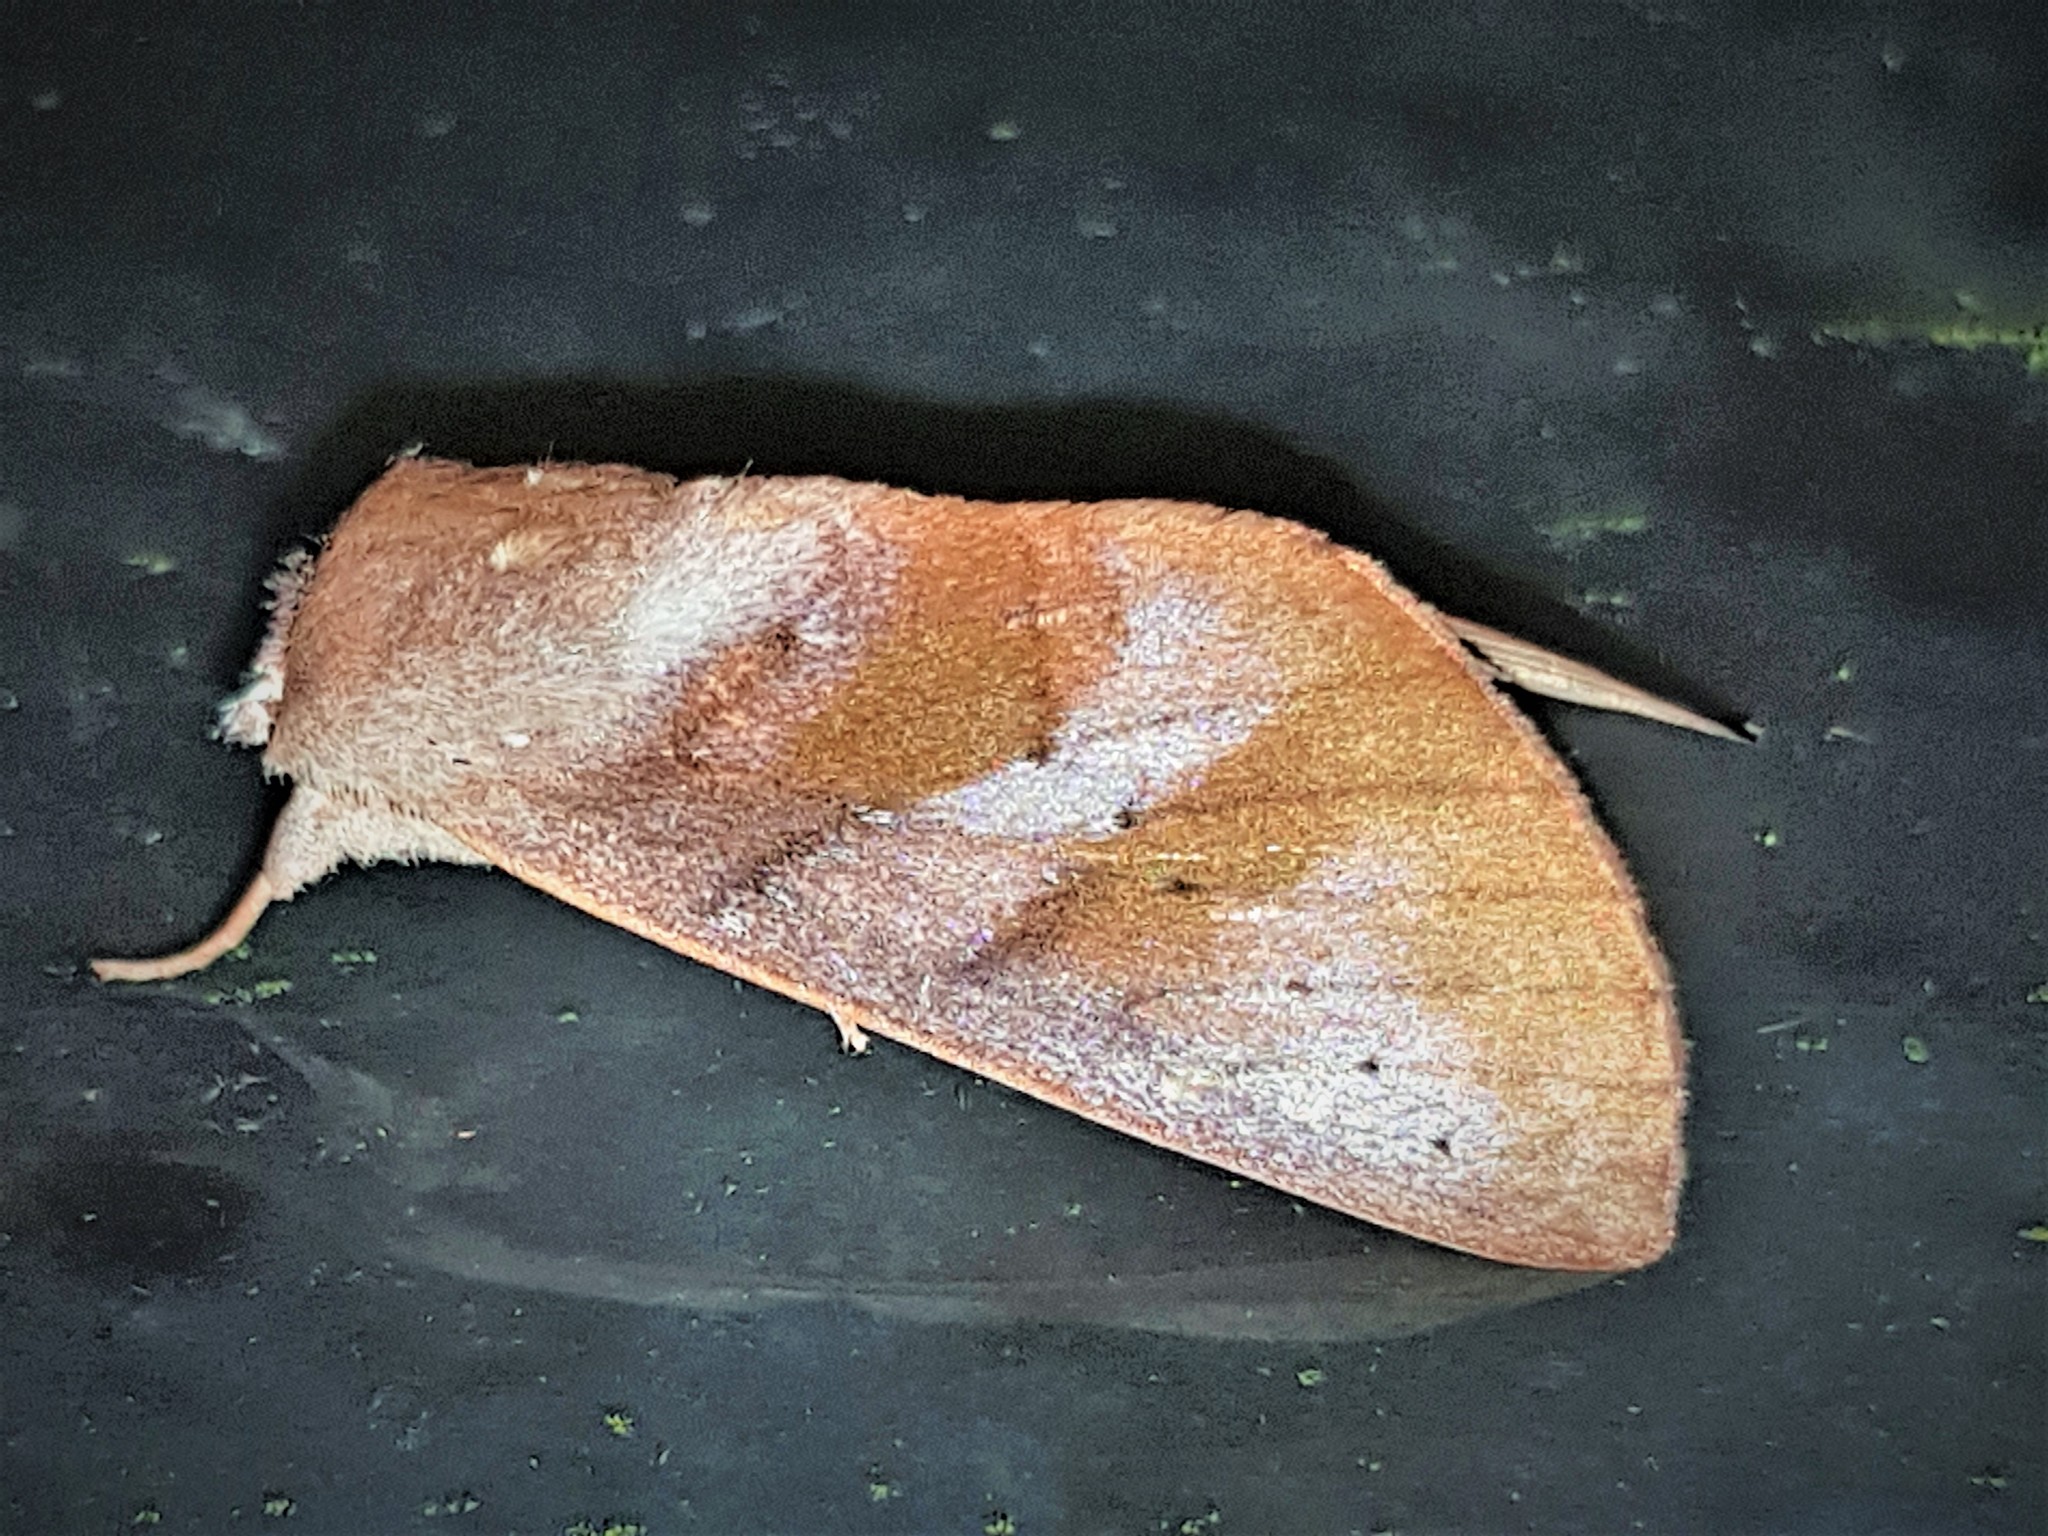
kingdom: Animalia
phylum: Arthropoda
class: Insecta
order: Lepidoptera
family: Notodontidae
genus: Hemiceras
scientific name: Hemiceras losa
